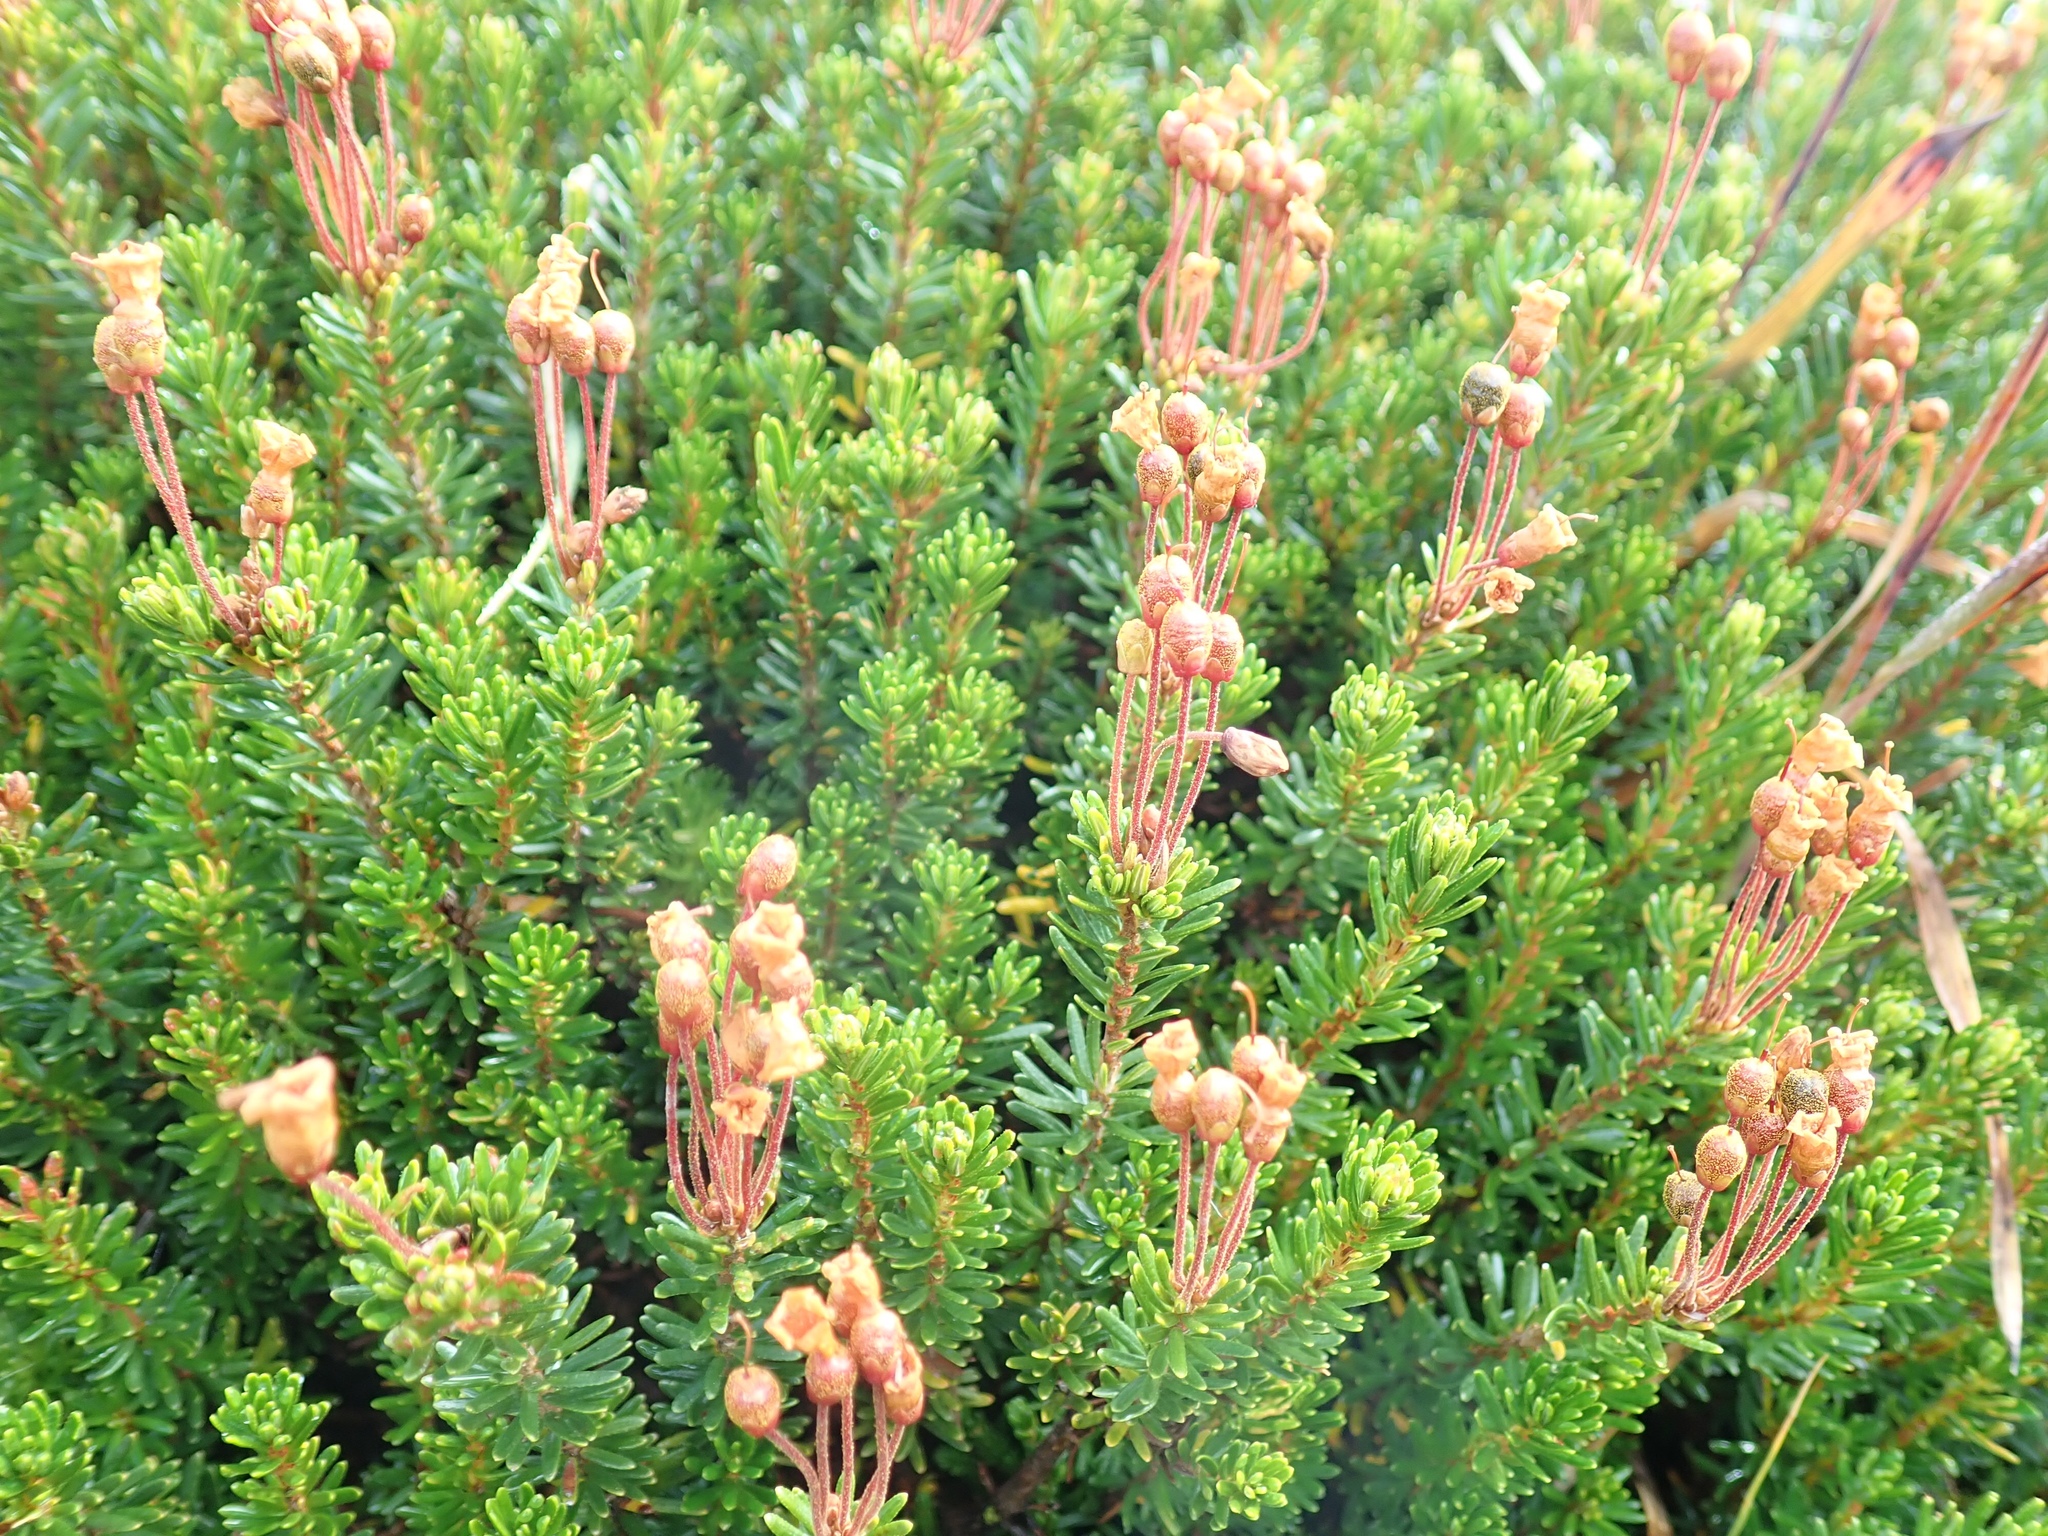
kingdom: Plantae
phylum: Tracheophyta
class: Magnoliopsida
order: Ericales
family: Ericaceae
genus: Phyllodoce
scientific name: Phyllodoce empetriformis
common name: Pink mountain heather
